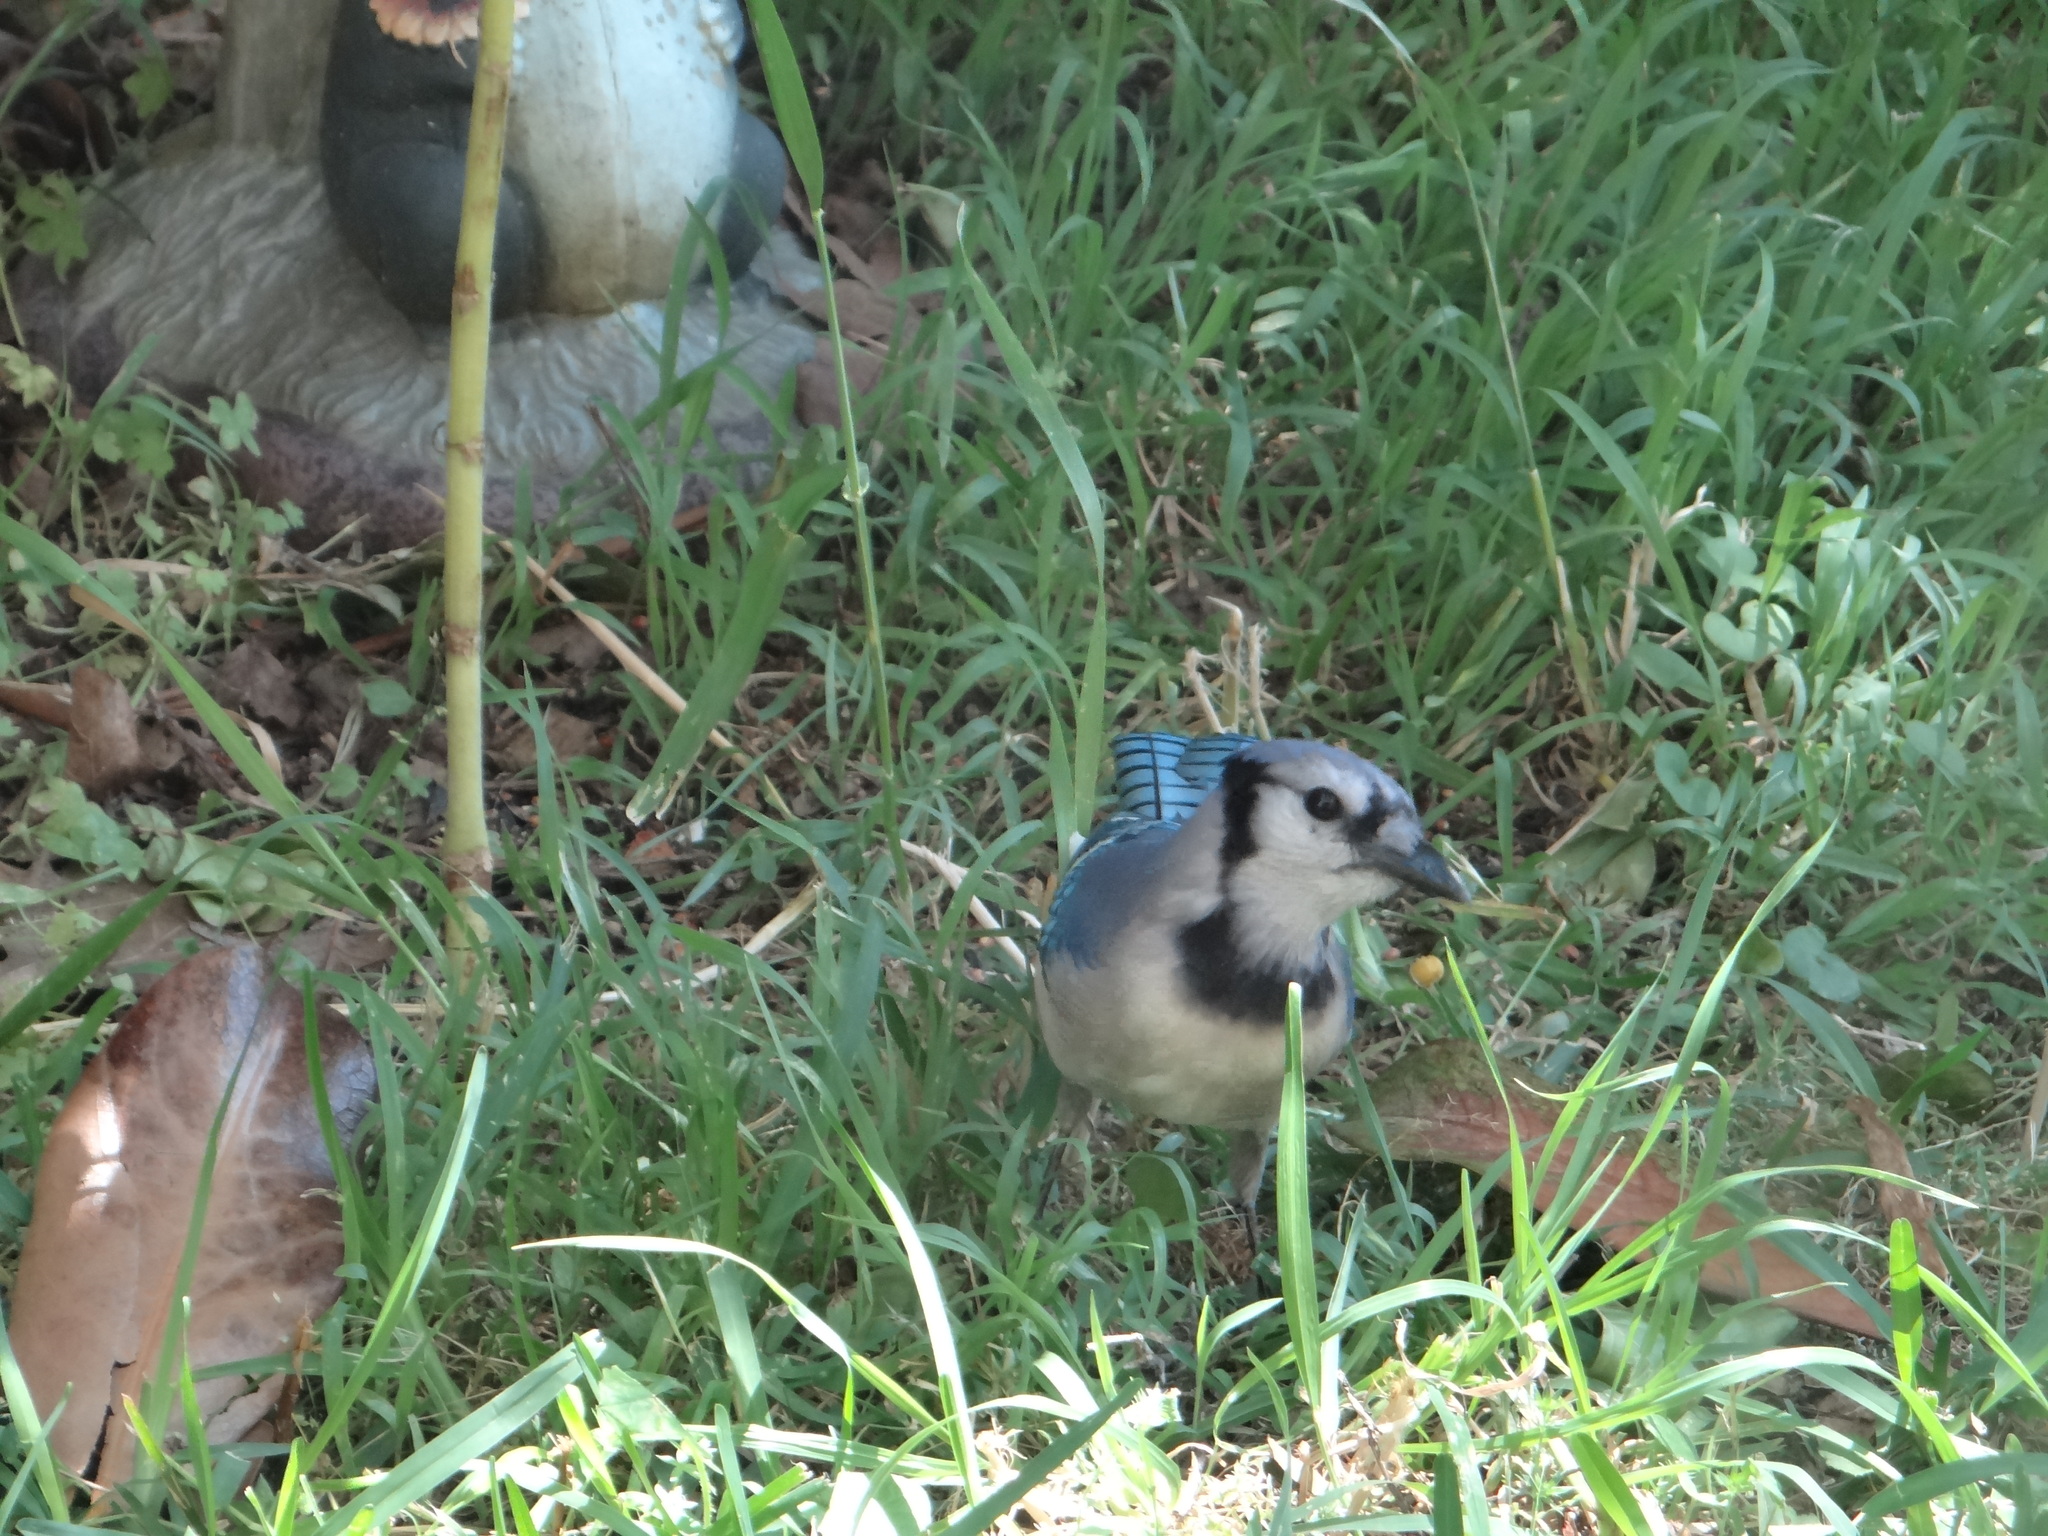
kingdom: Animalia
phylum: Chordata
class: Aves
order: Passeriformes
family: Corvidae
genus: Cyanocitta
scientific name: Cyanocitta cristata
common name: Blue jay
